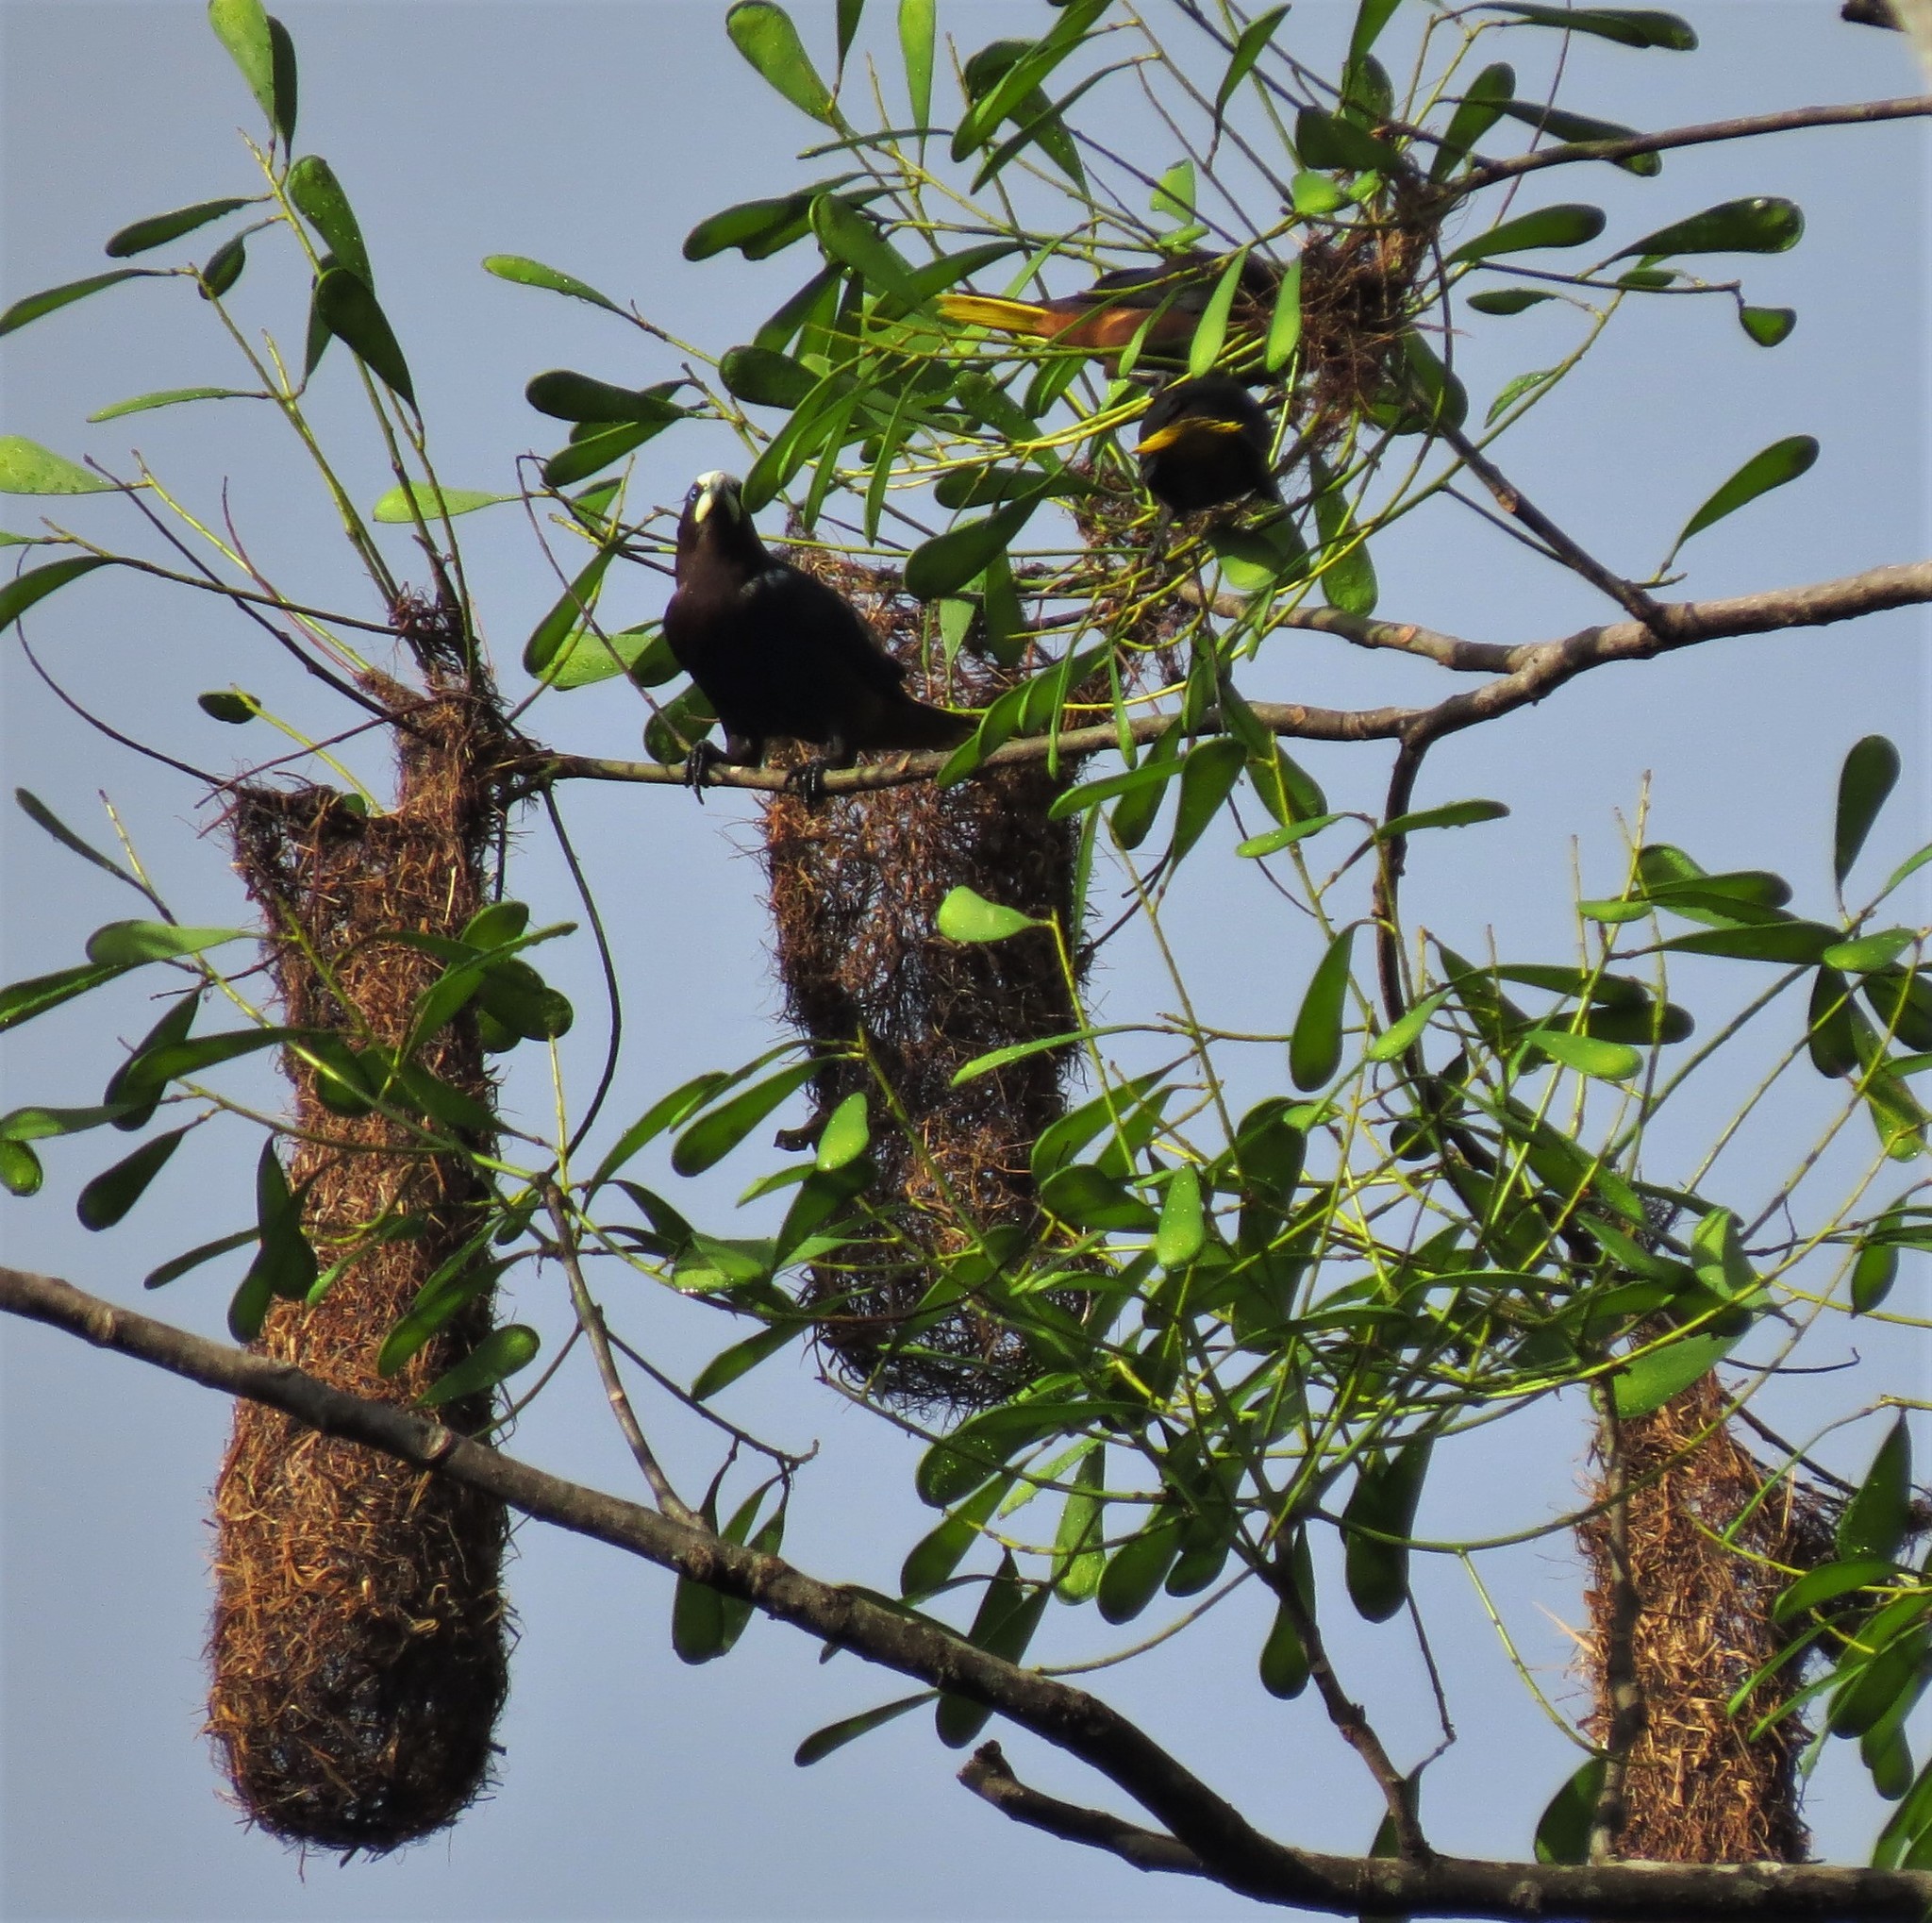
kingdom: Animalia
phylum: Chordata
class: Aves
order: Passeriformes
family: Icteridae
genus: Psarocolius
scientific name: Psarocolius wagleri
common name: Chestnut-headed oropendola
